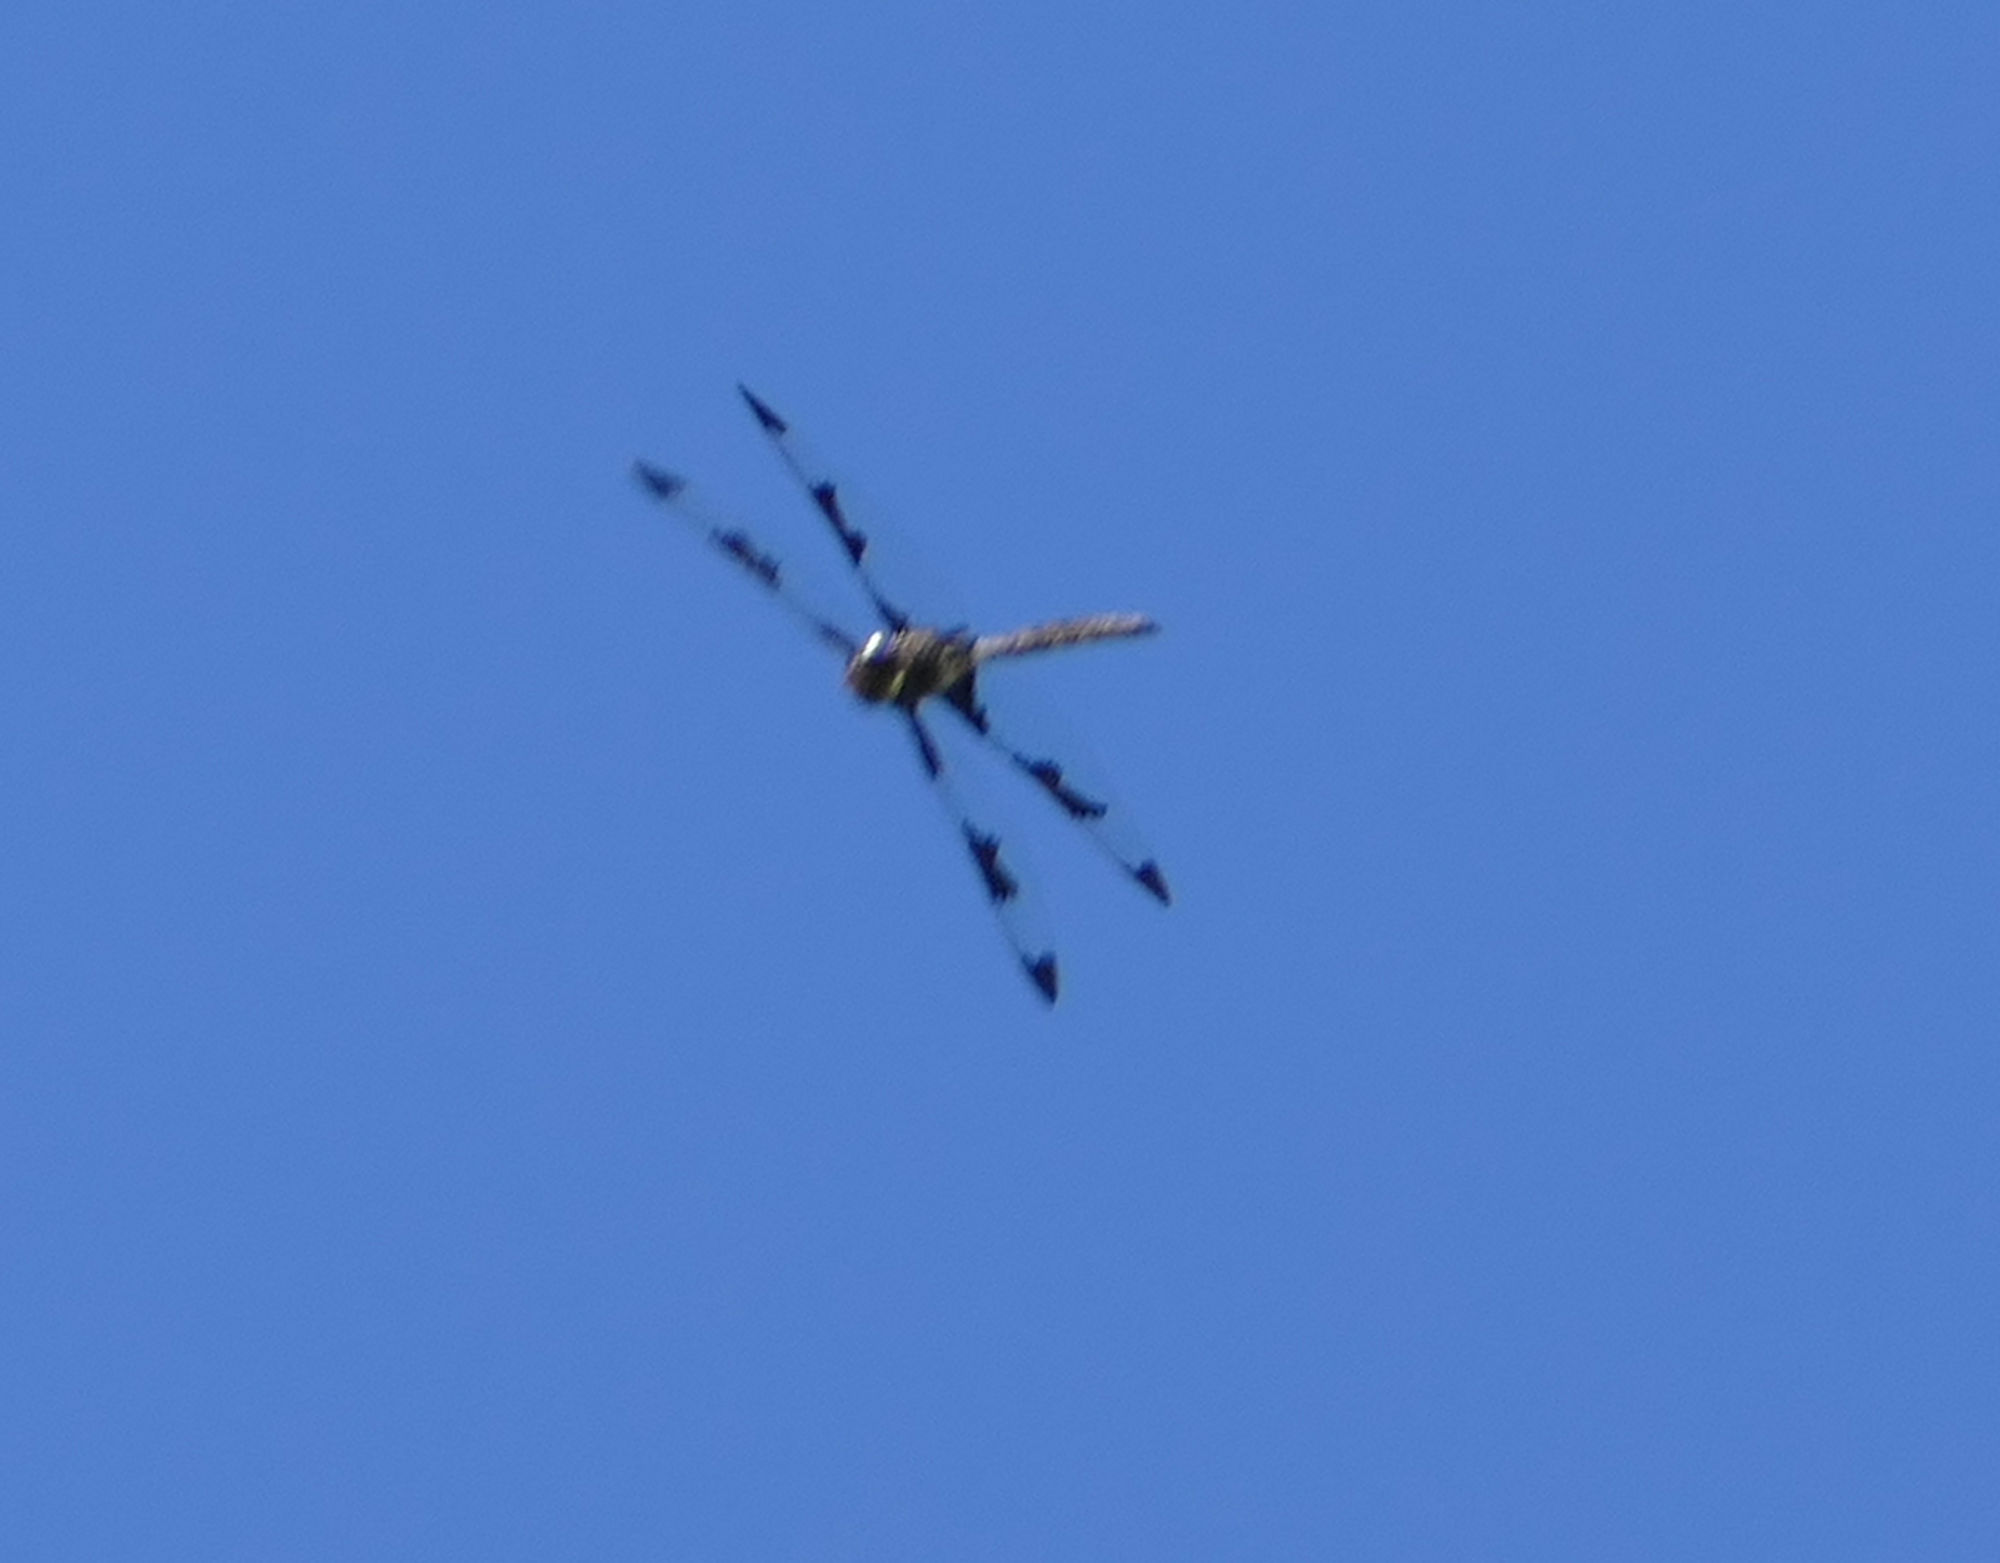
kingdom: Animalia
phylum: Arthropoda
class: Insecta
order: Odonata
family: Corduliidae
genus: Epitheca
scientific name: Epitheca princeps
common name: Prince baskettail
